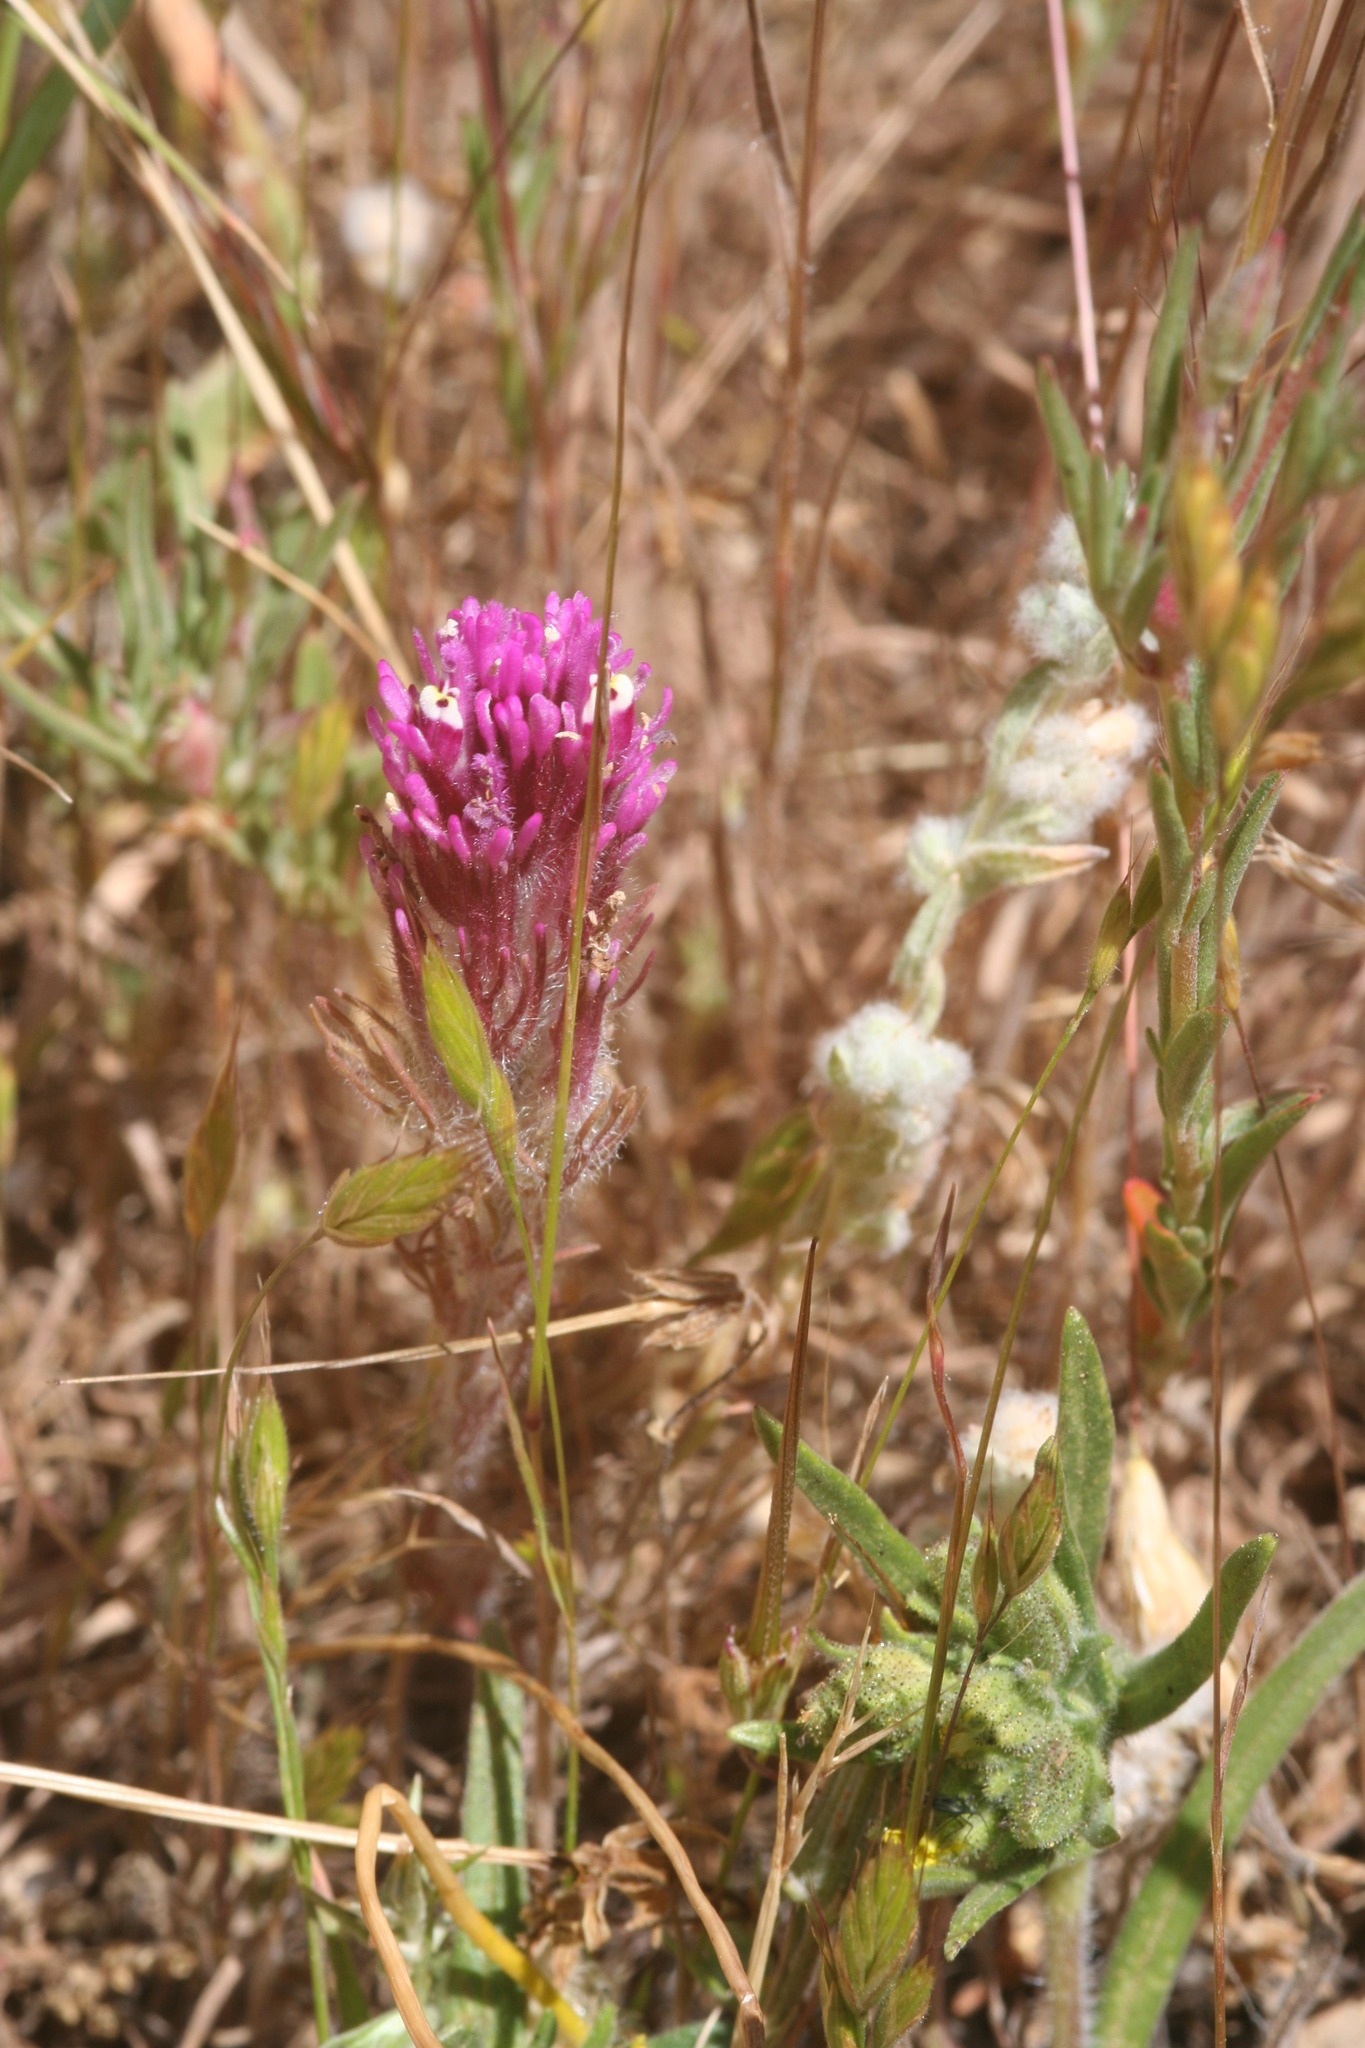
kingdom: Plantae
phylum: Tracheophyta
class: Magnoliopsida
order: Lamiales
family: Orobanchaceae
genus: Castilleja
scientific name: Castilleja exserta
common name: Purple owl-clover
